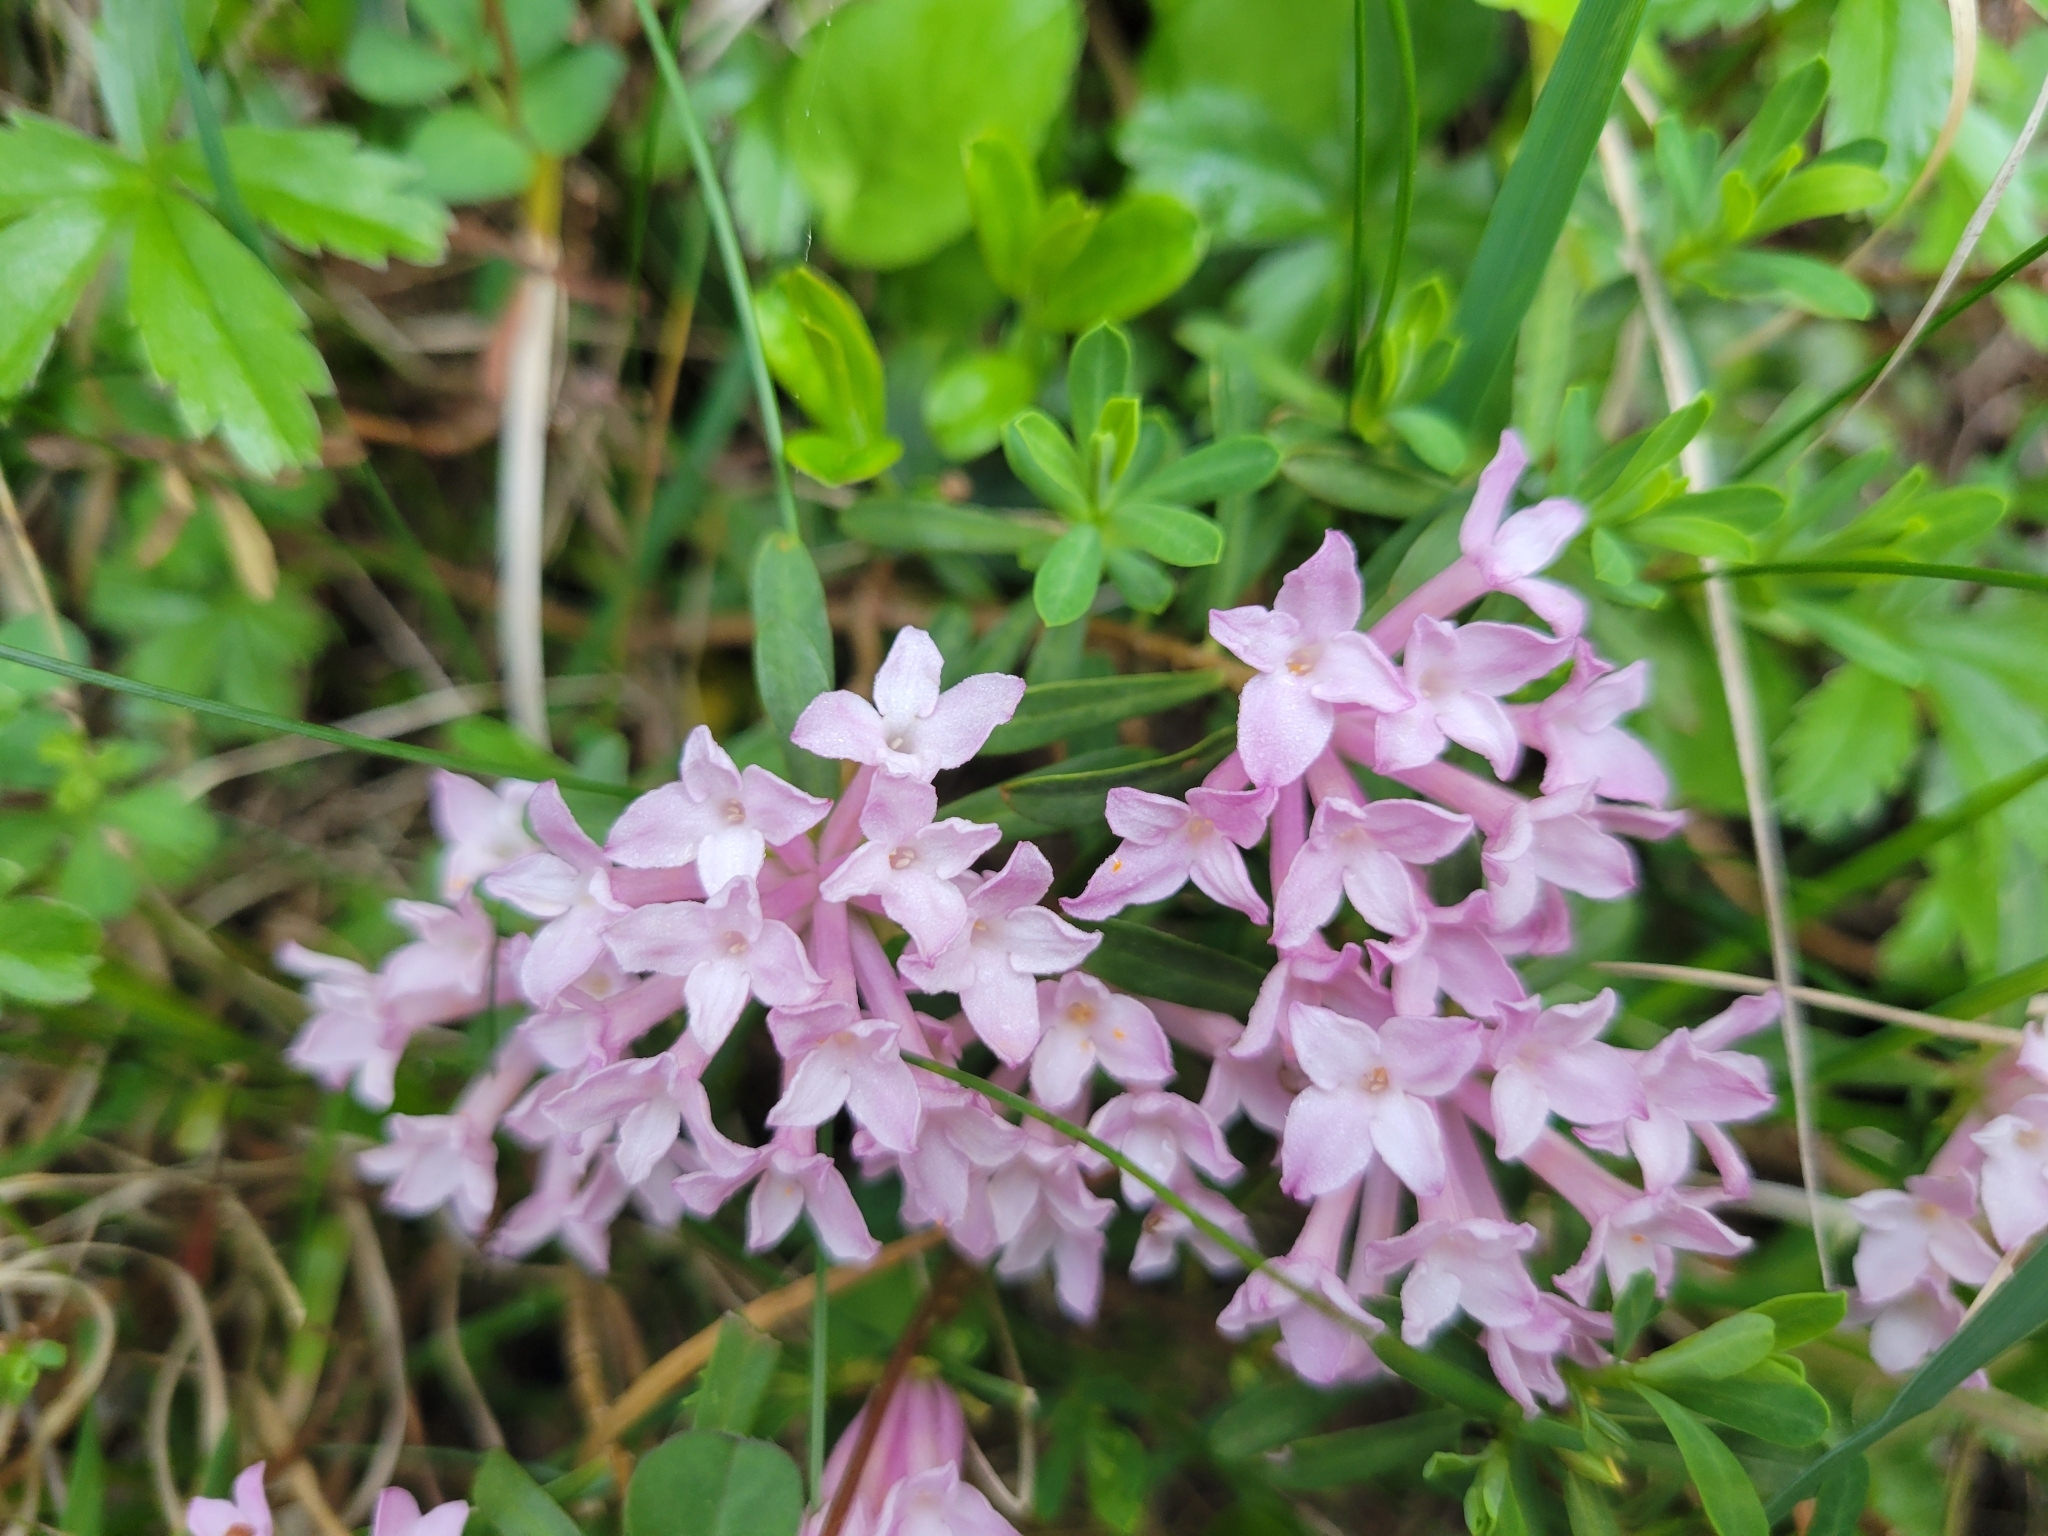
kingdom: Plantae
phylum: Tracheophyta
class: Magnoliopsida
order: Malvales
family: Thymelaeaceae
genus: Daphne
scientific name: Daphne striata
